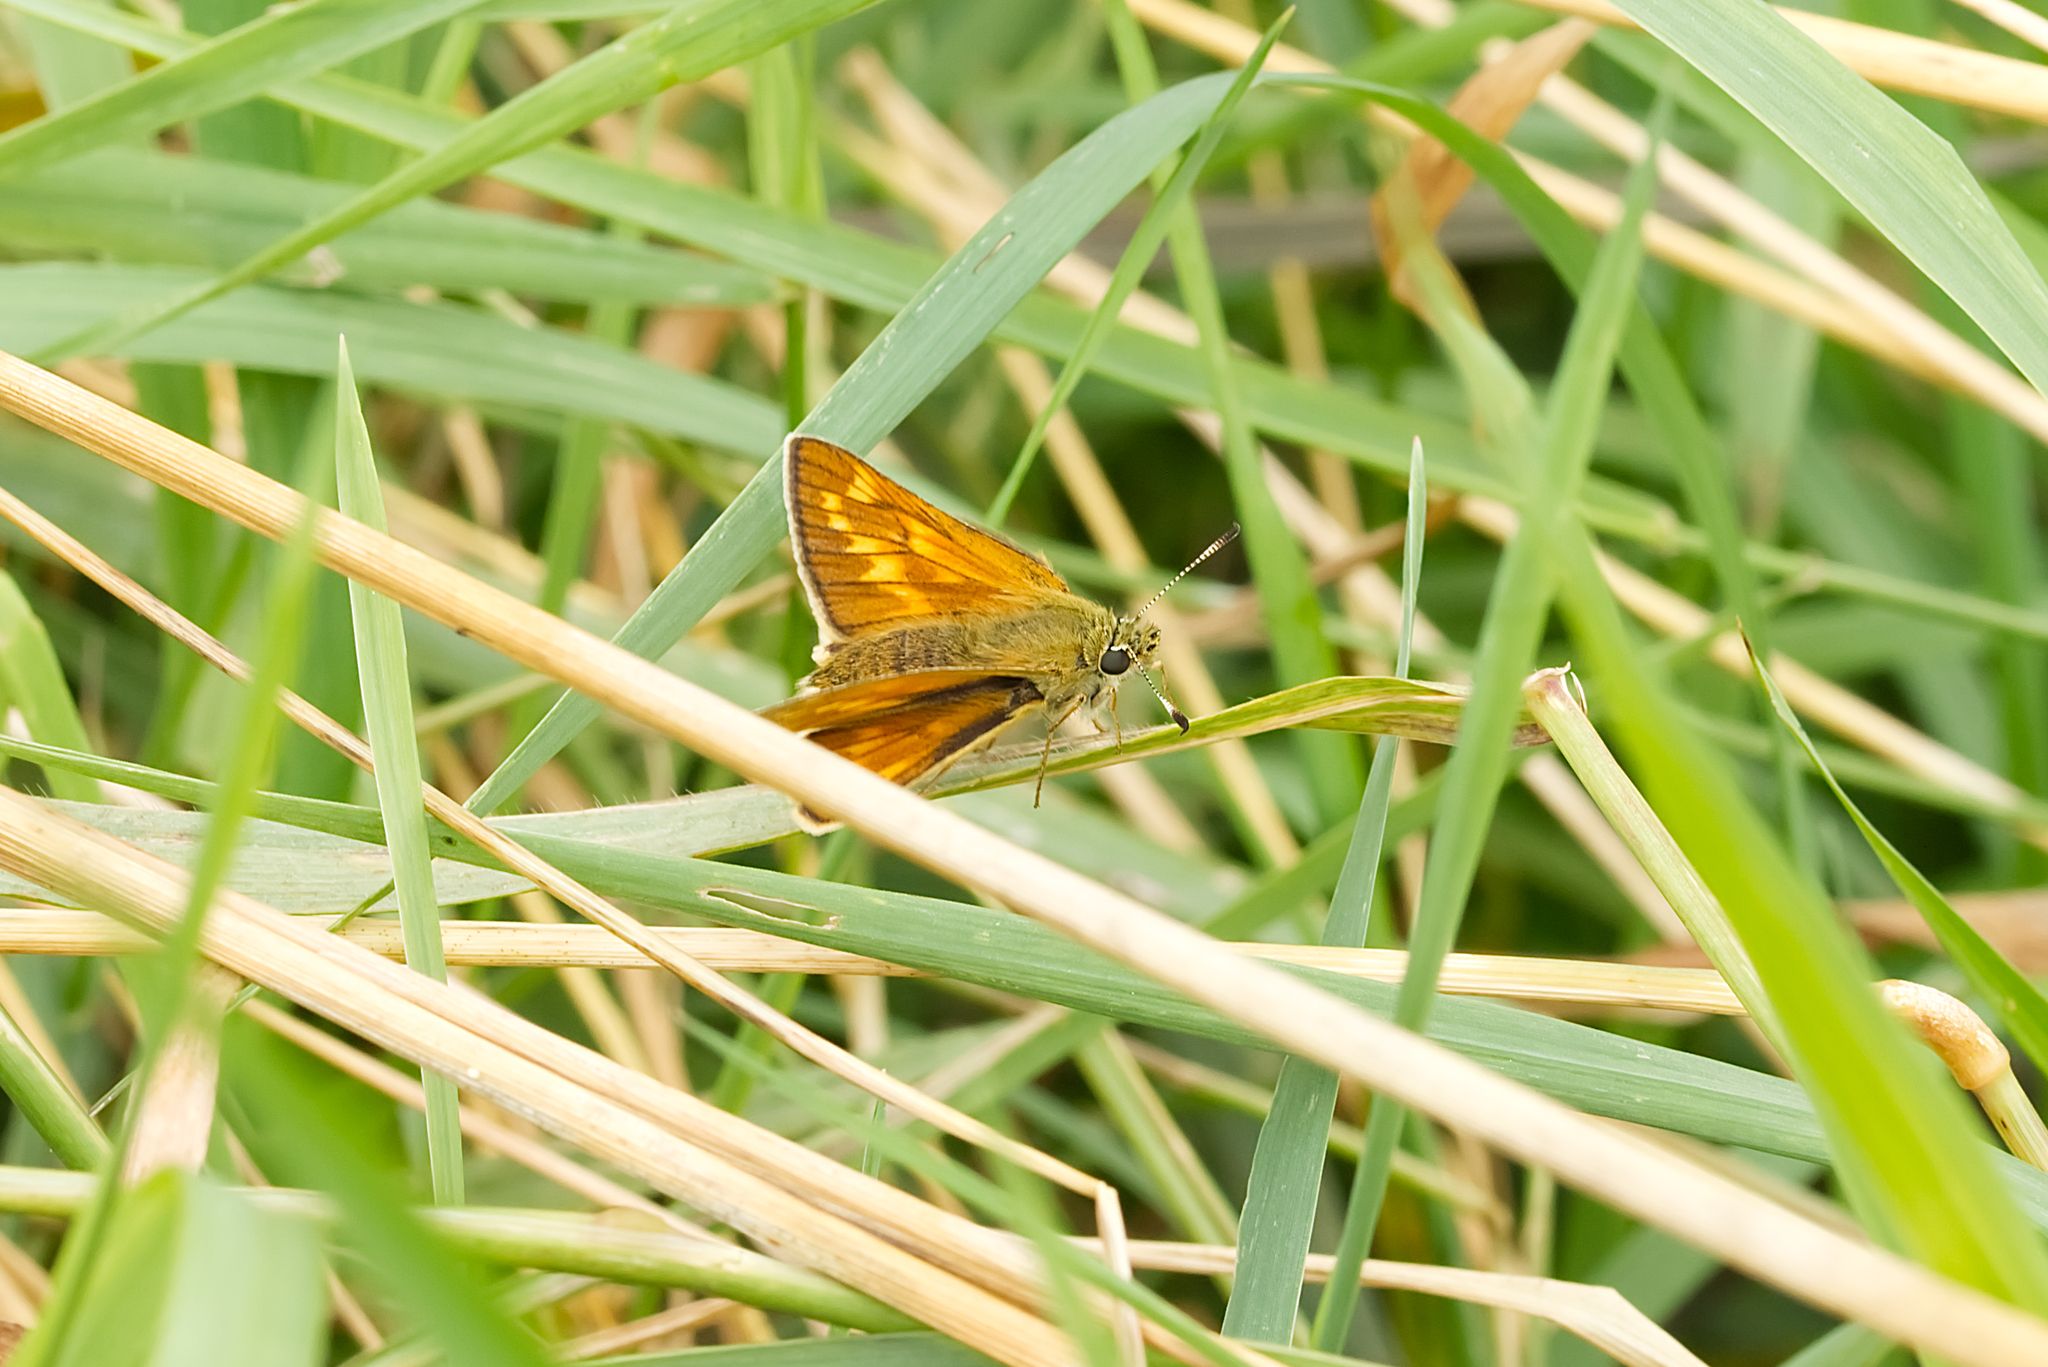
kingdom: Animalia
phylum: Arthropoda
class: Insecta
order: Lepidoptera
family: Hesperiidae
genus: Ochlodes
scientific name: Ochlodes venata
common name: Large skipper
